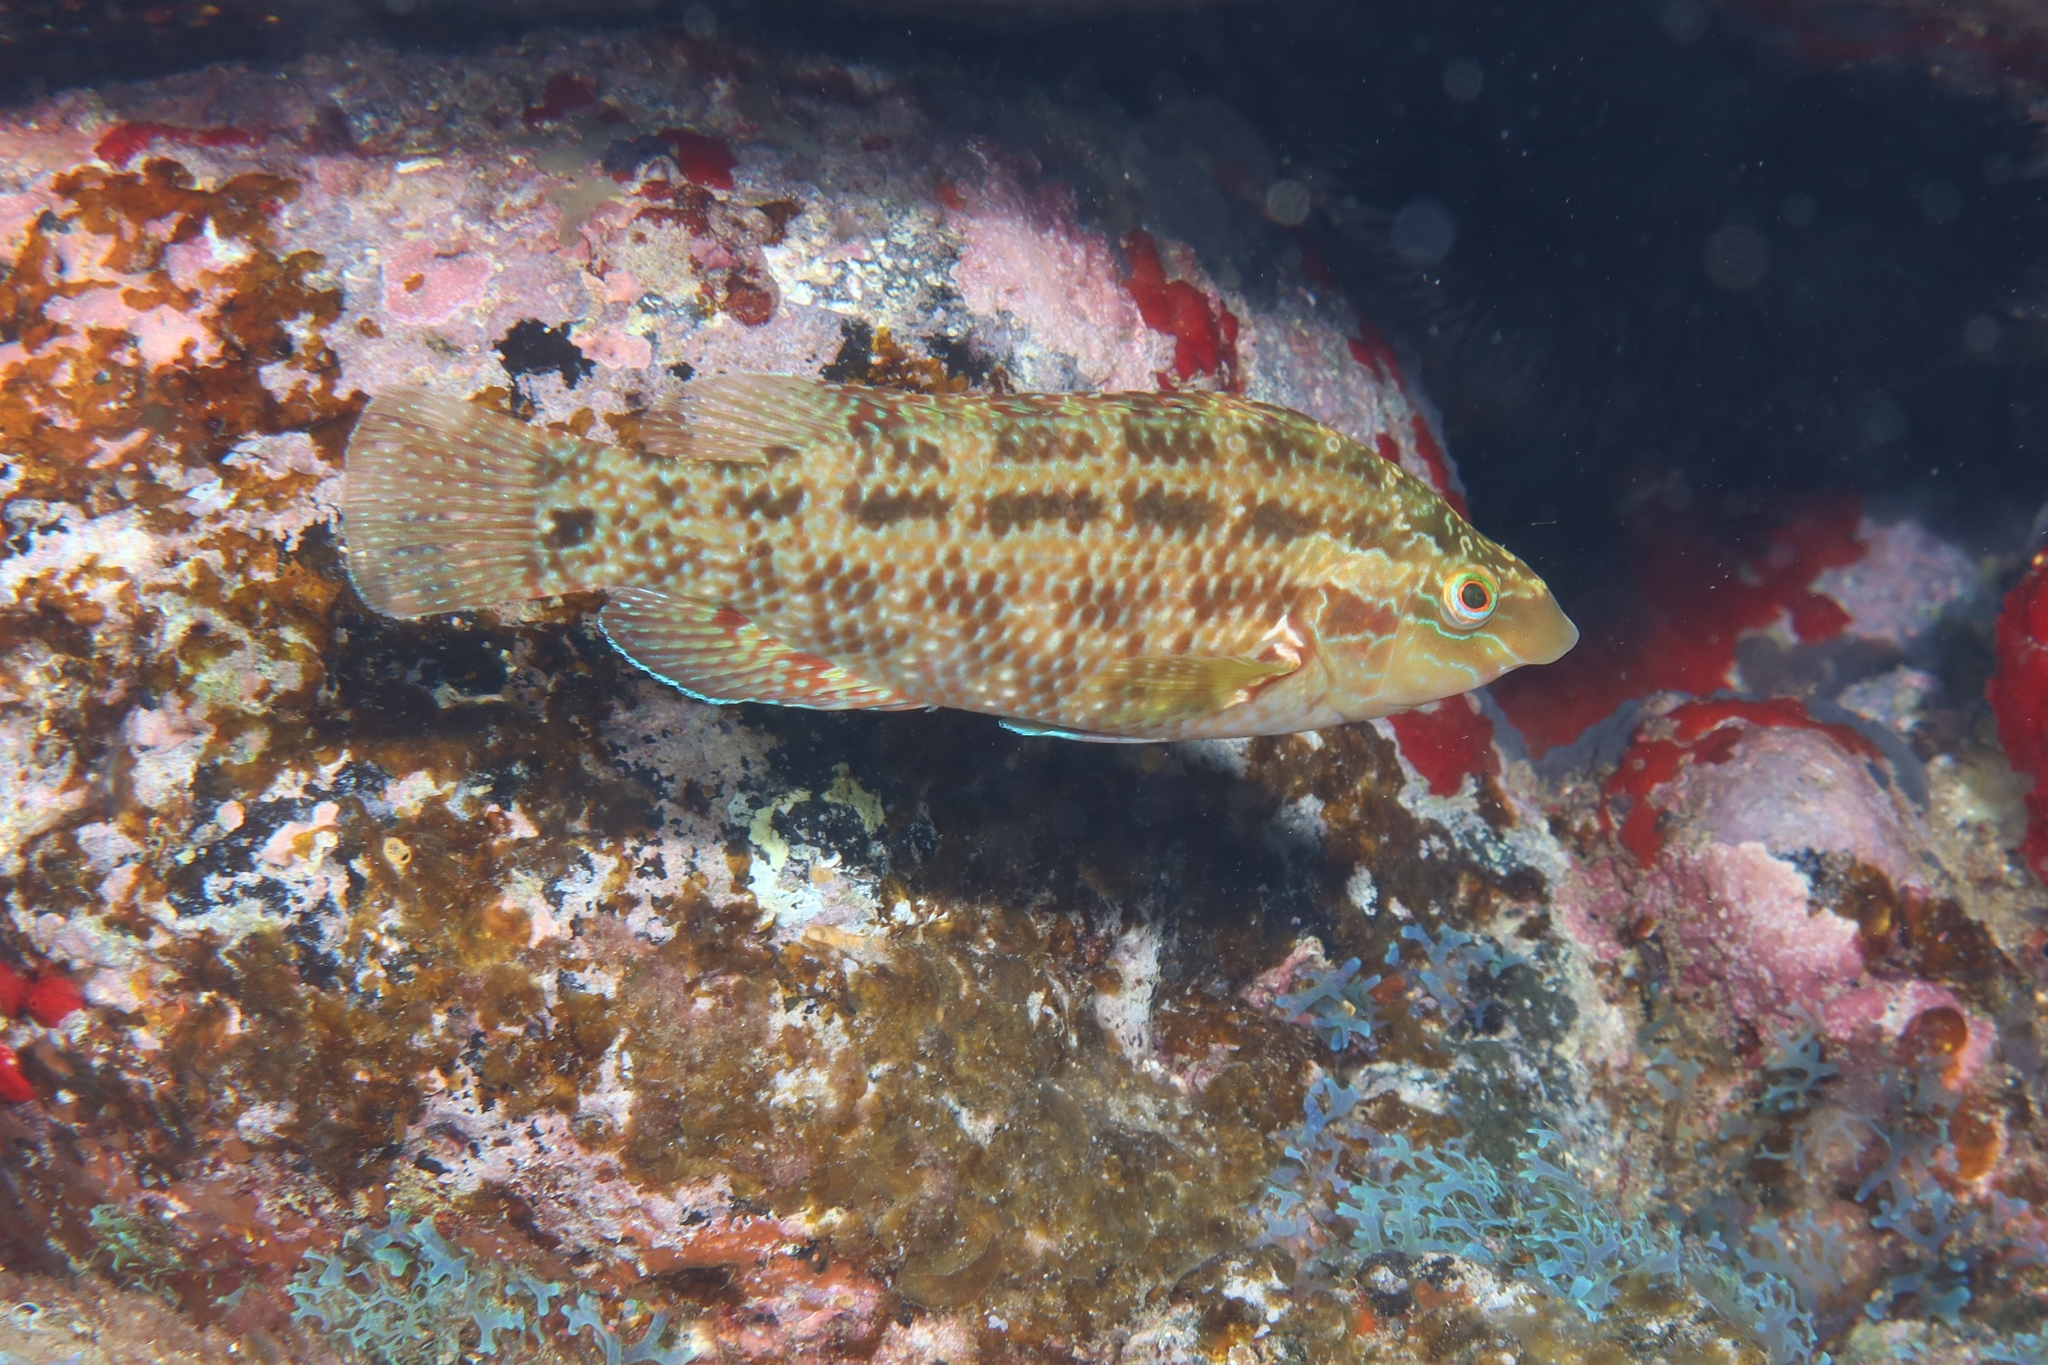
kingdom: Animalia
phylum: Chordata
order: Perciformes
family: Labridae
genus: Symphodus
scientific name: Symphodus trutta
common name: Emerald wrasse
